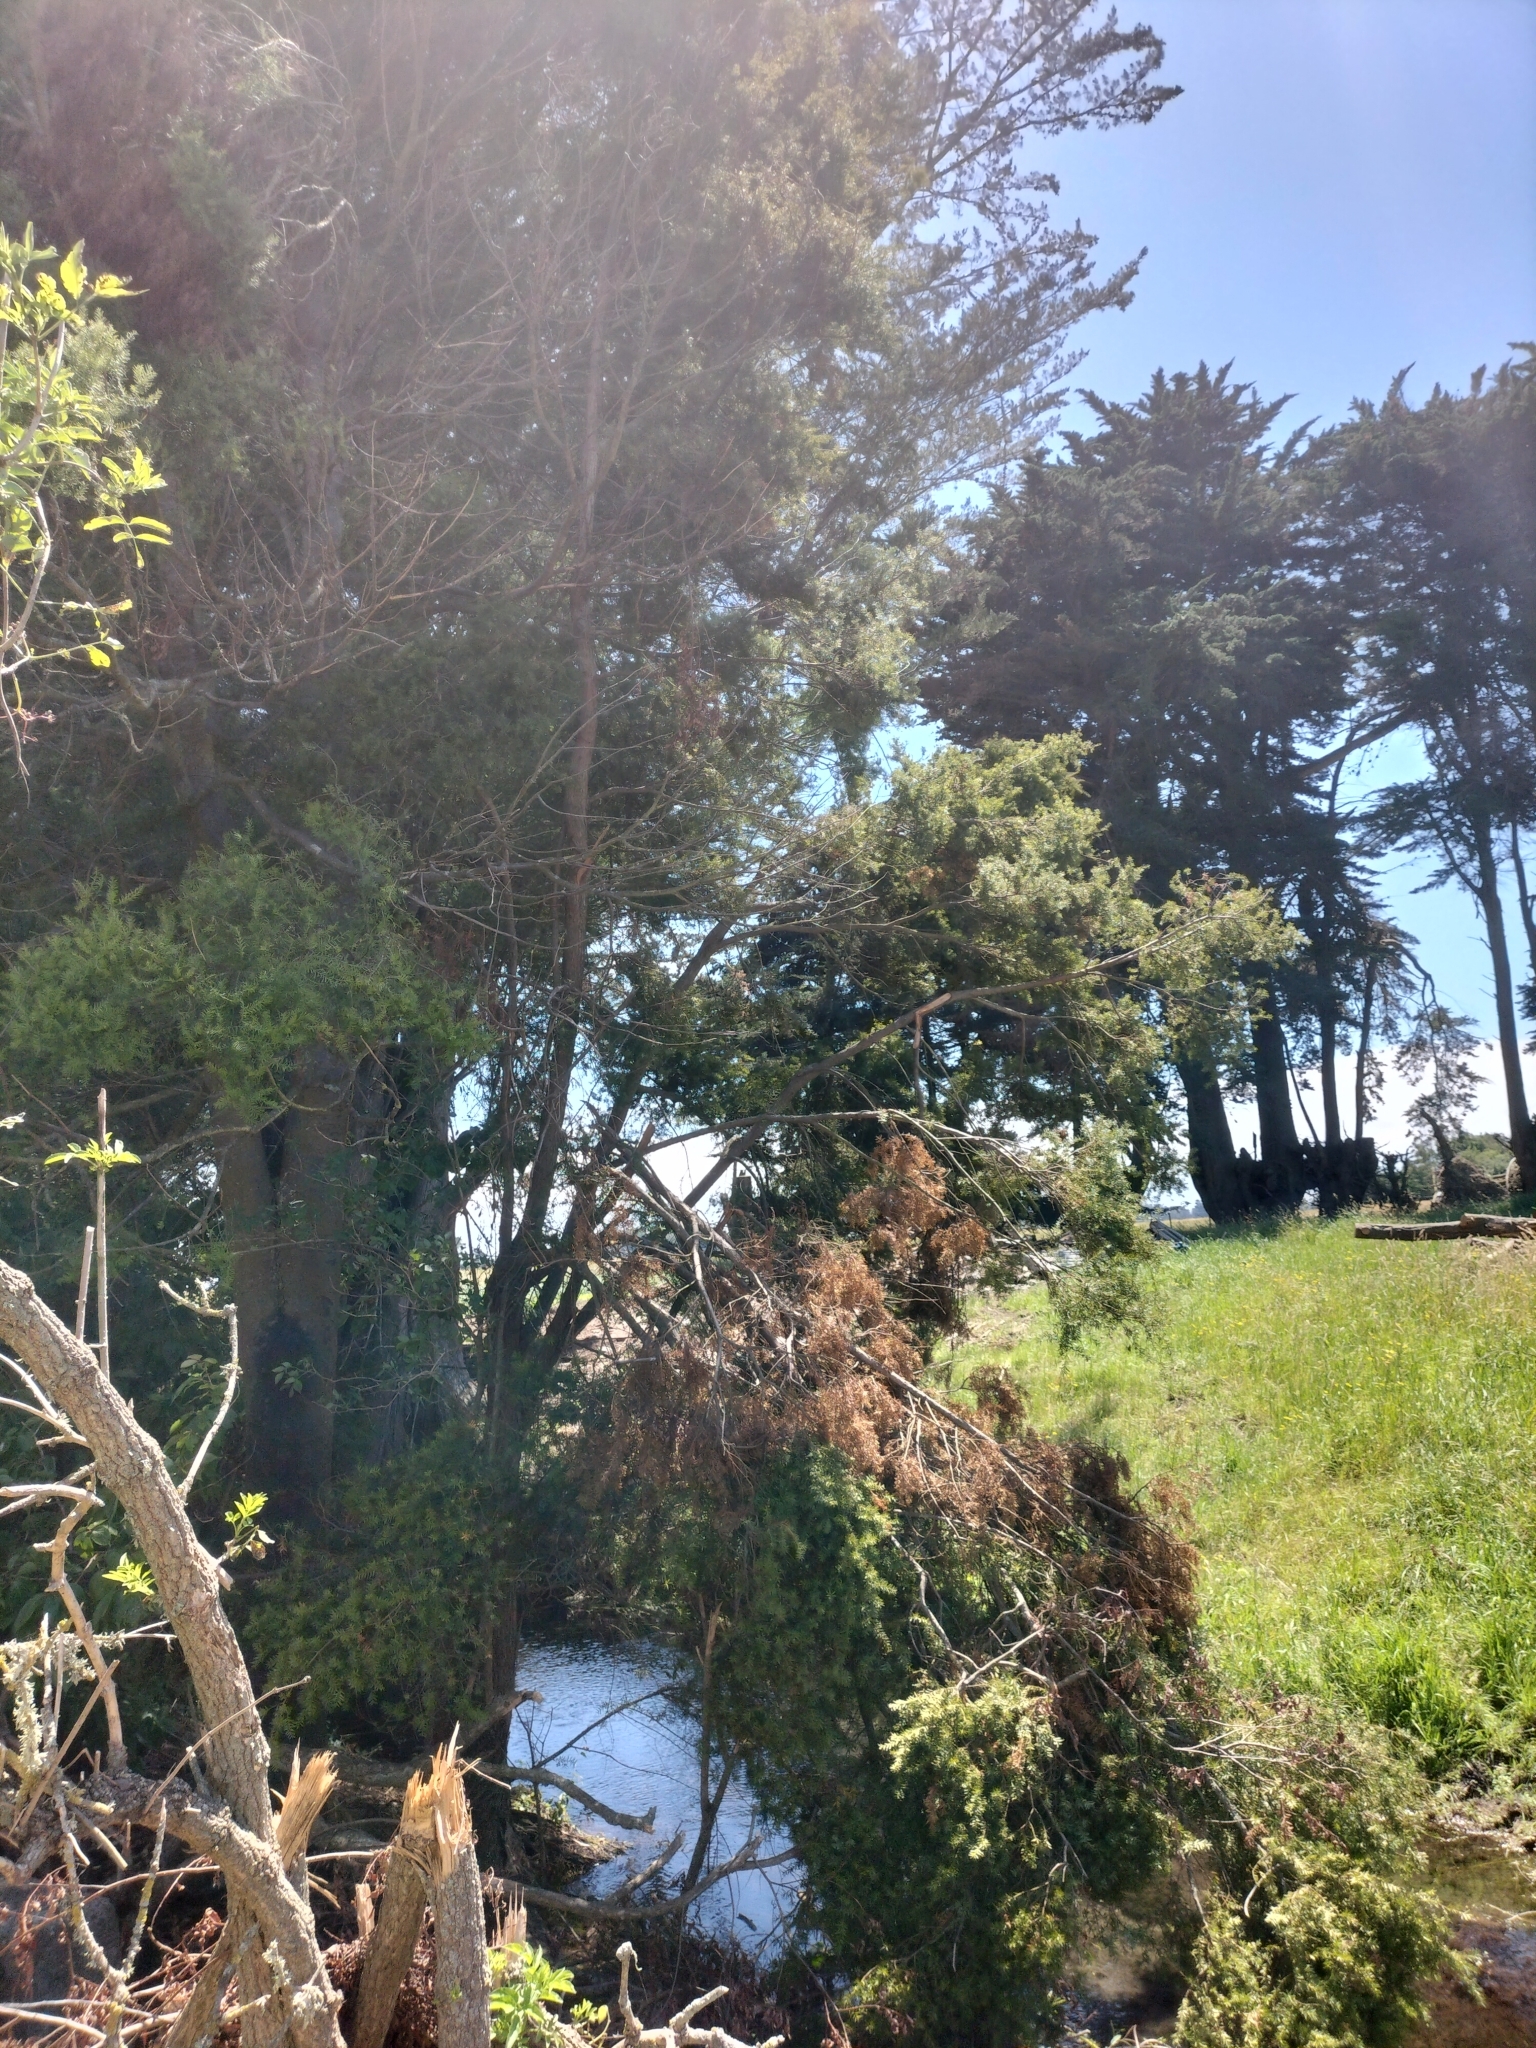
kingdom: Plantae
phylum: Tracheophyta
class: Pinopsida
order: Pinales
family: Podocarpaceae
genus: Podocarpus
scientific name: Podocarpus totara
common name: Totara
